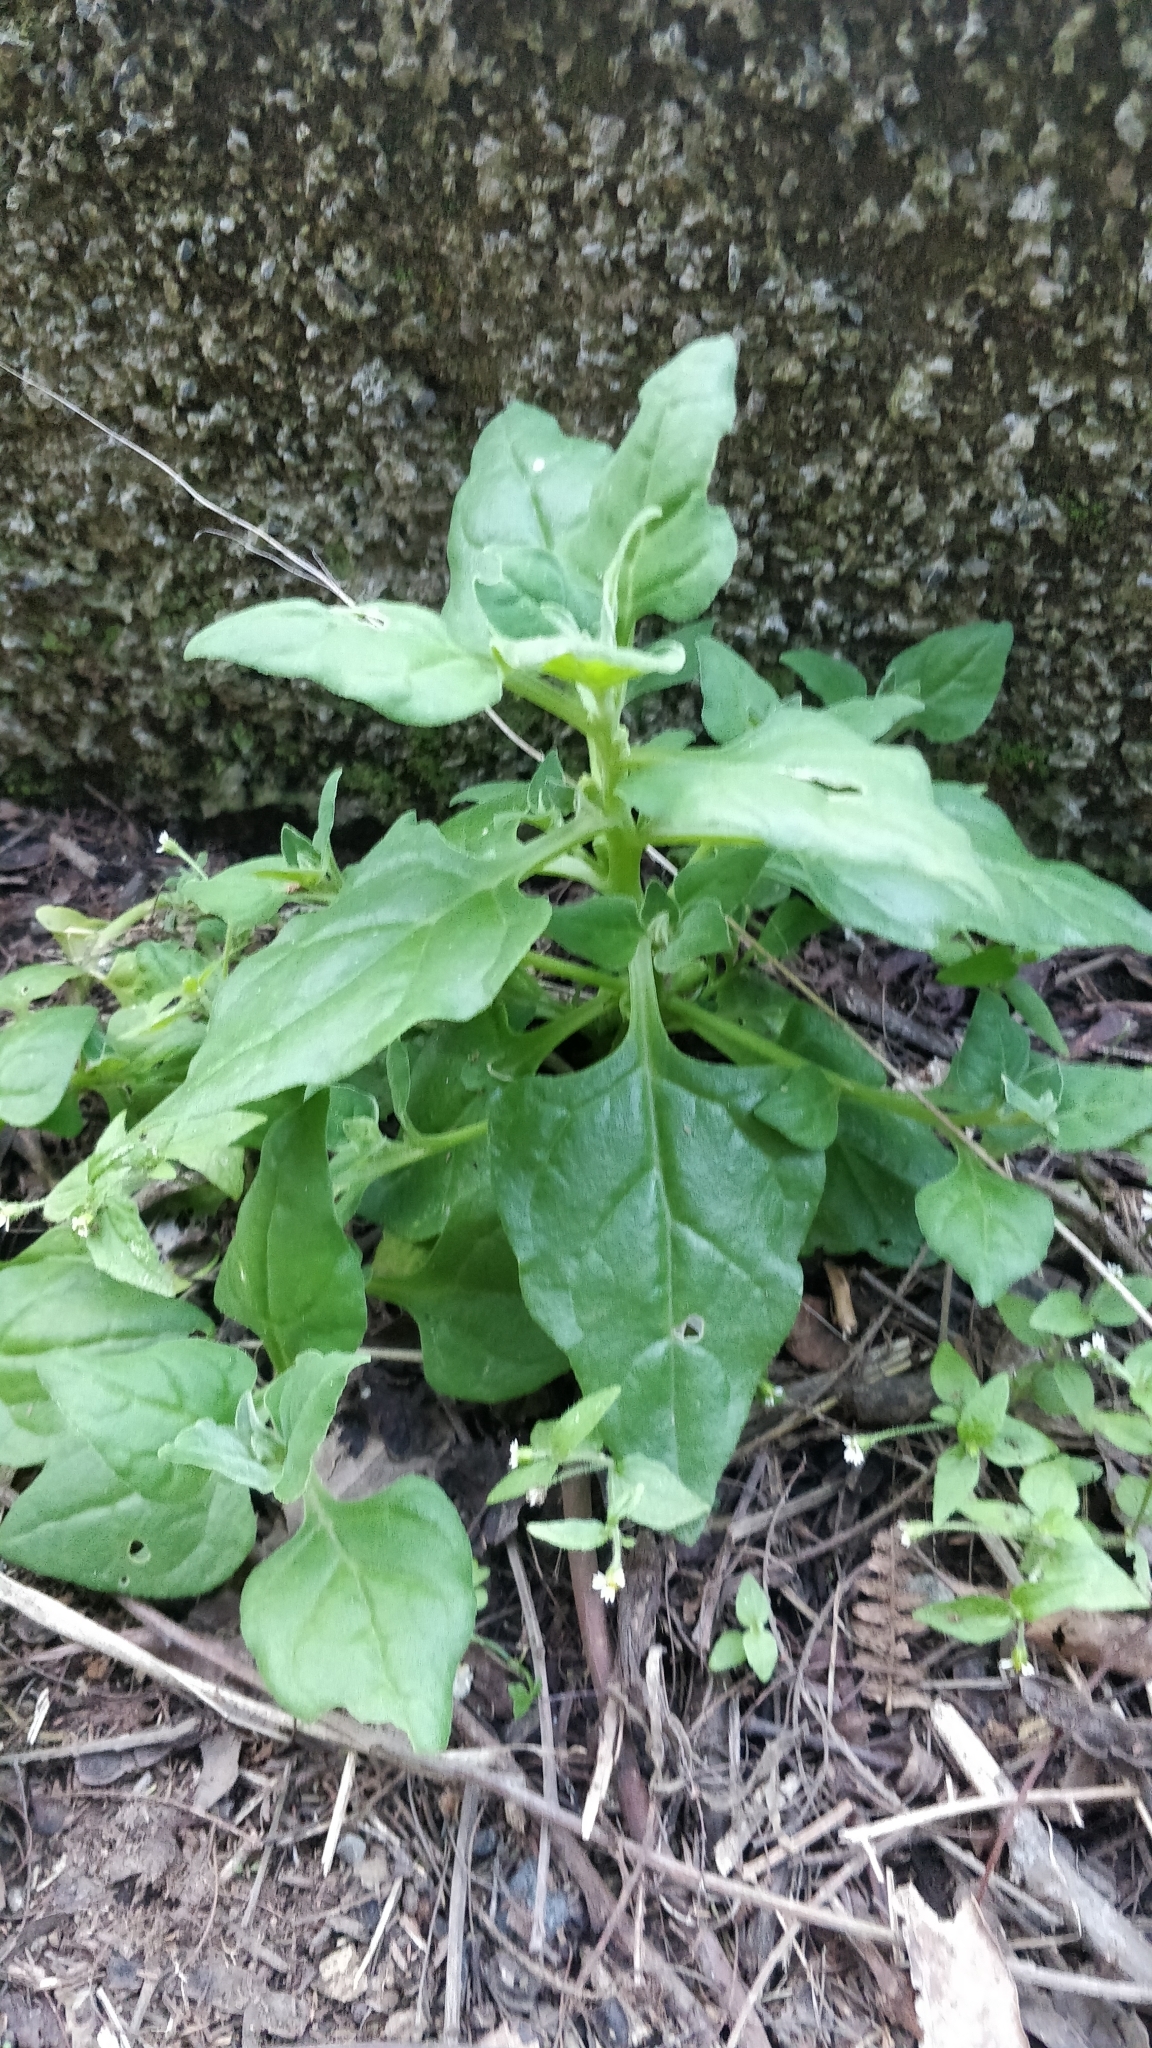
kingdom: Plantae
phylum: Tracheophyta
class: Magnoliopsida
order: Caryophyllales
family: Aizoaceae
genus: Tetragonia
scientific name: Tetragonia tetragonoides
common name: New zealand-spinach
